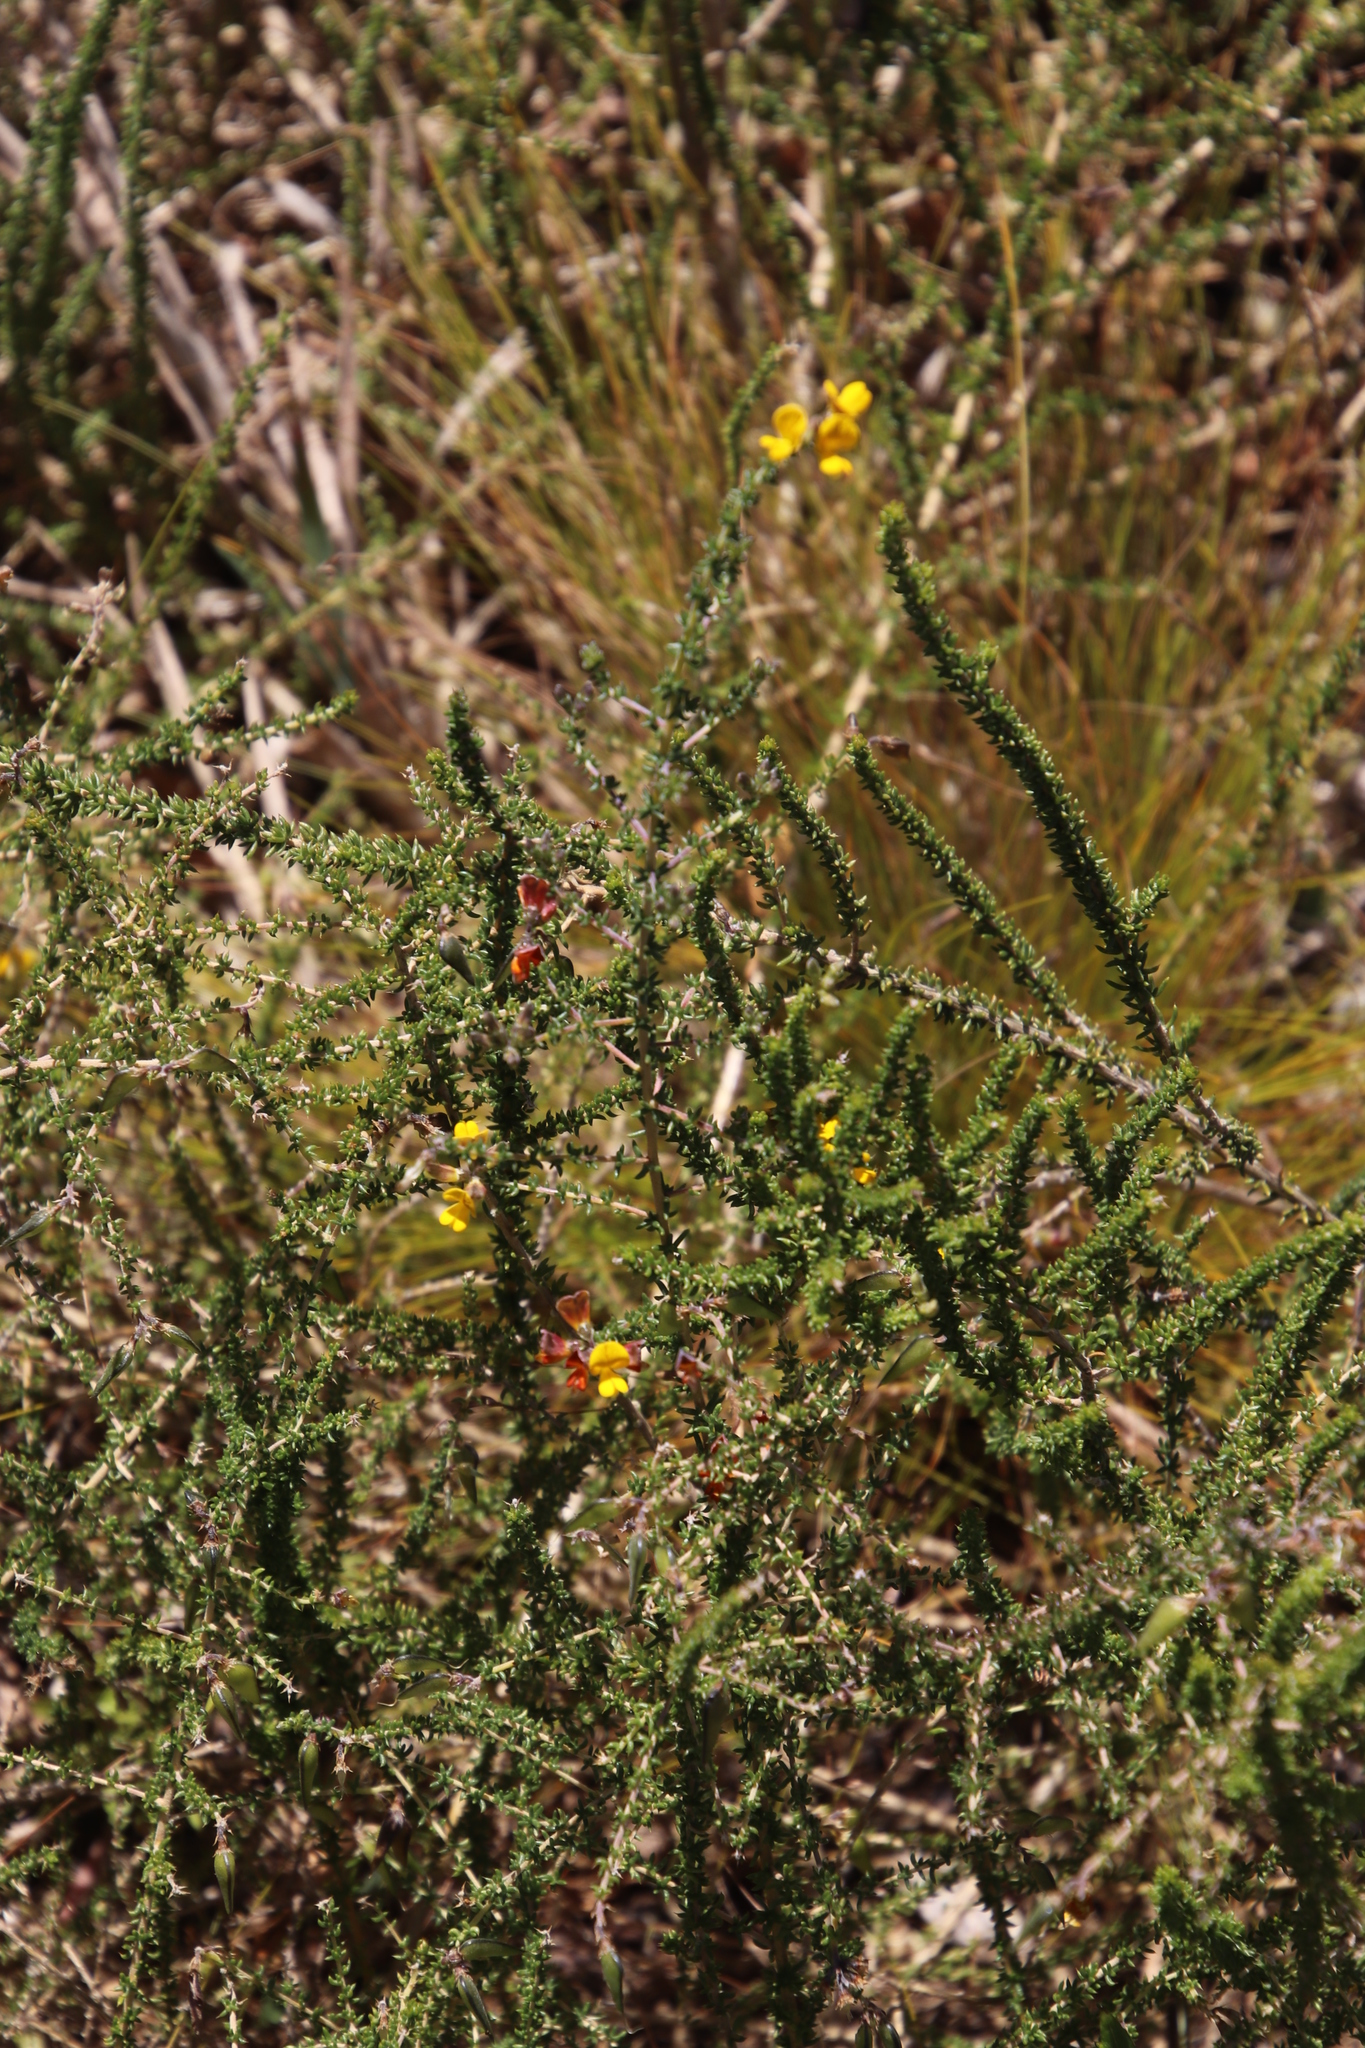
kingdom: Plantae
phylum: Tracheophyta
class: Magnoliopsida
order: Fabales
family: Fabaceae
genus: Aspalathus
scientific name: Aspalathus divaricata
